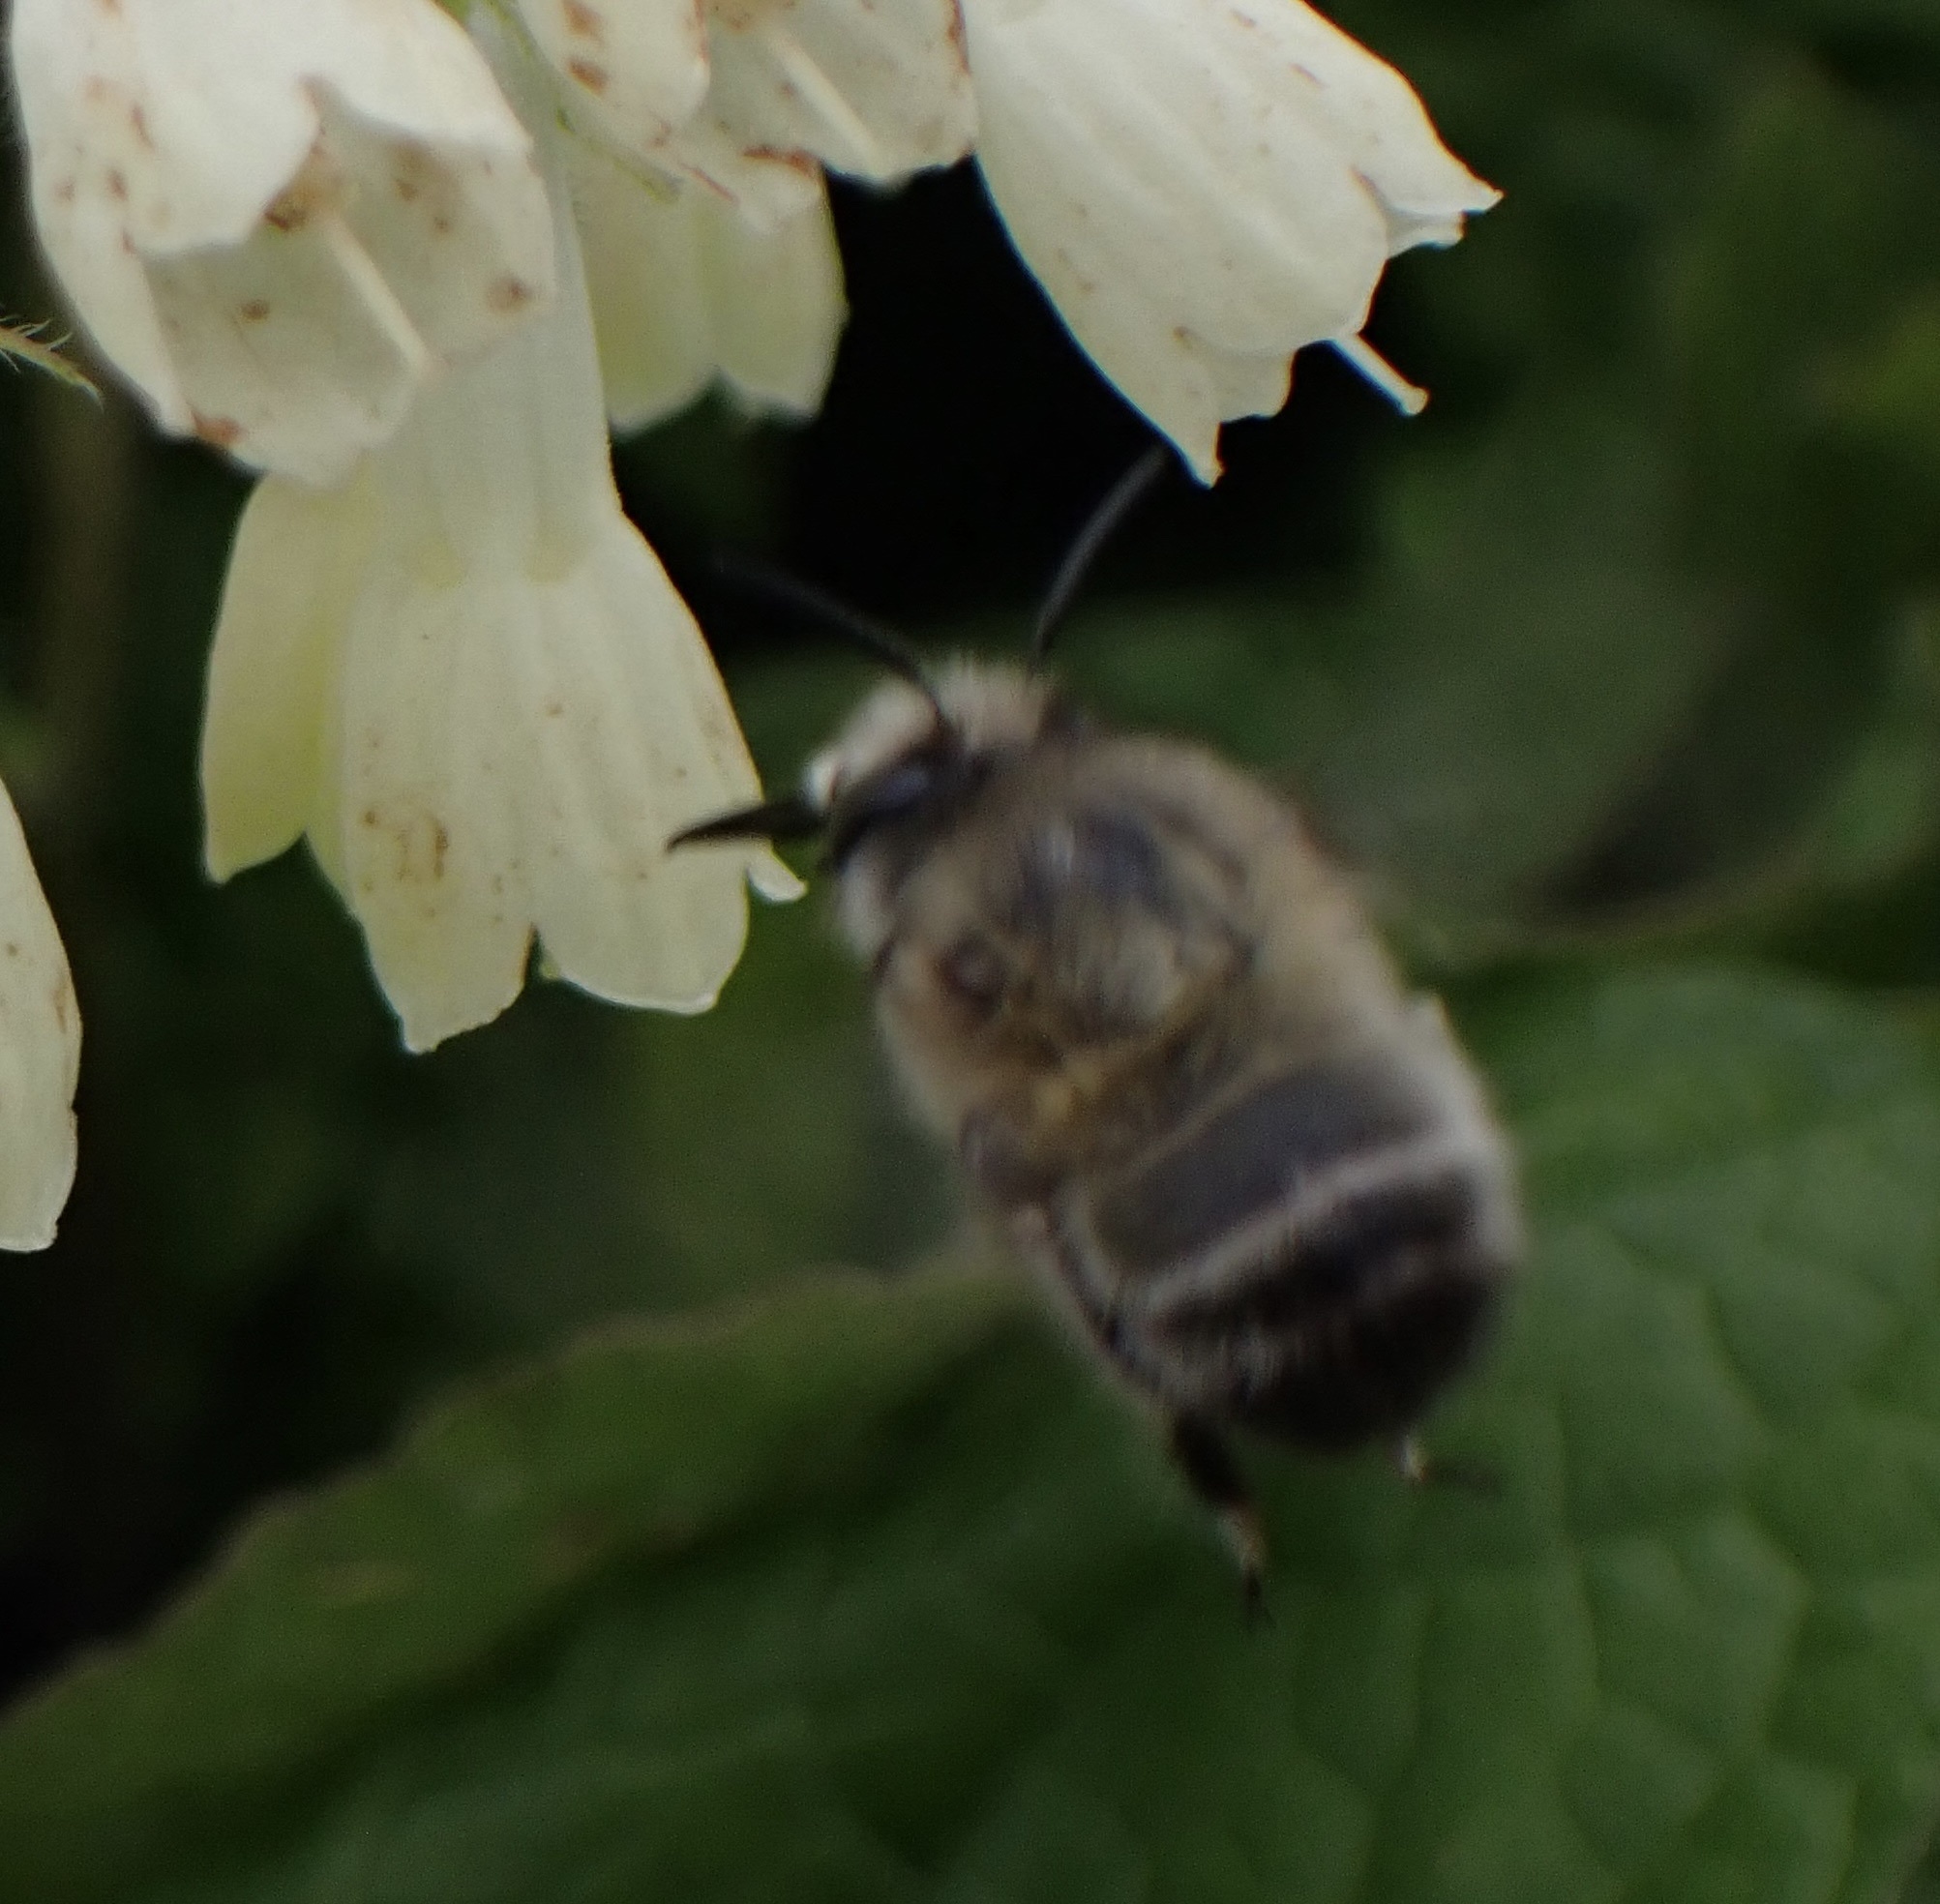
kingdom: Animalia
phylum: Arthropoda
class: Insecta
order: Hymenoptera
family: Apidae
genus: Anthophora
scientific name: Anthophora plumipes
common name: Hairy-footed flower bee
